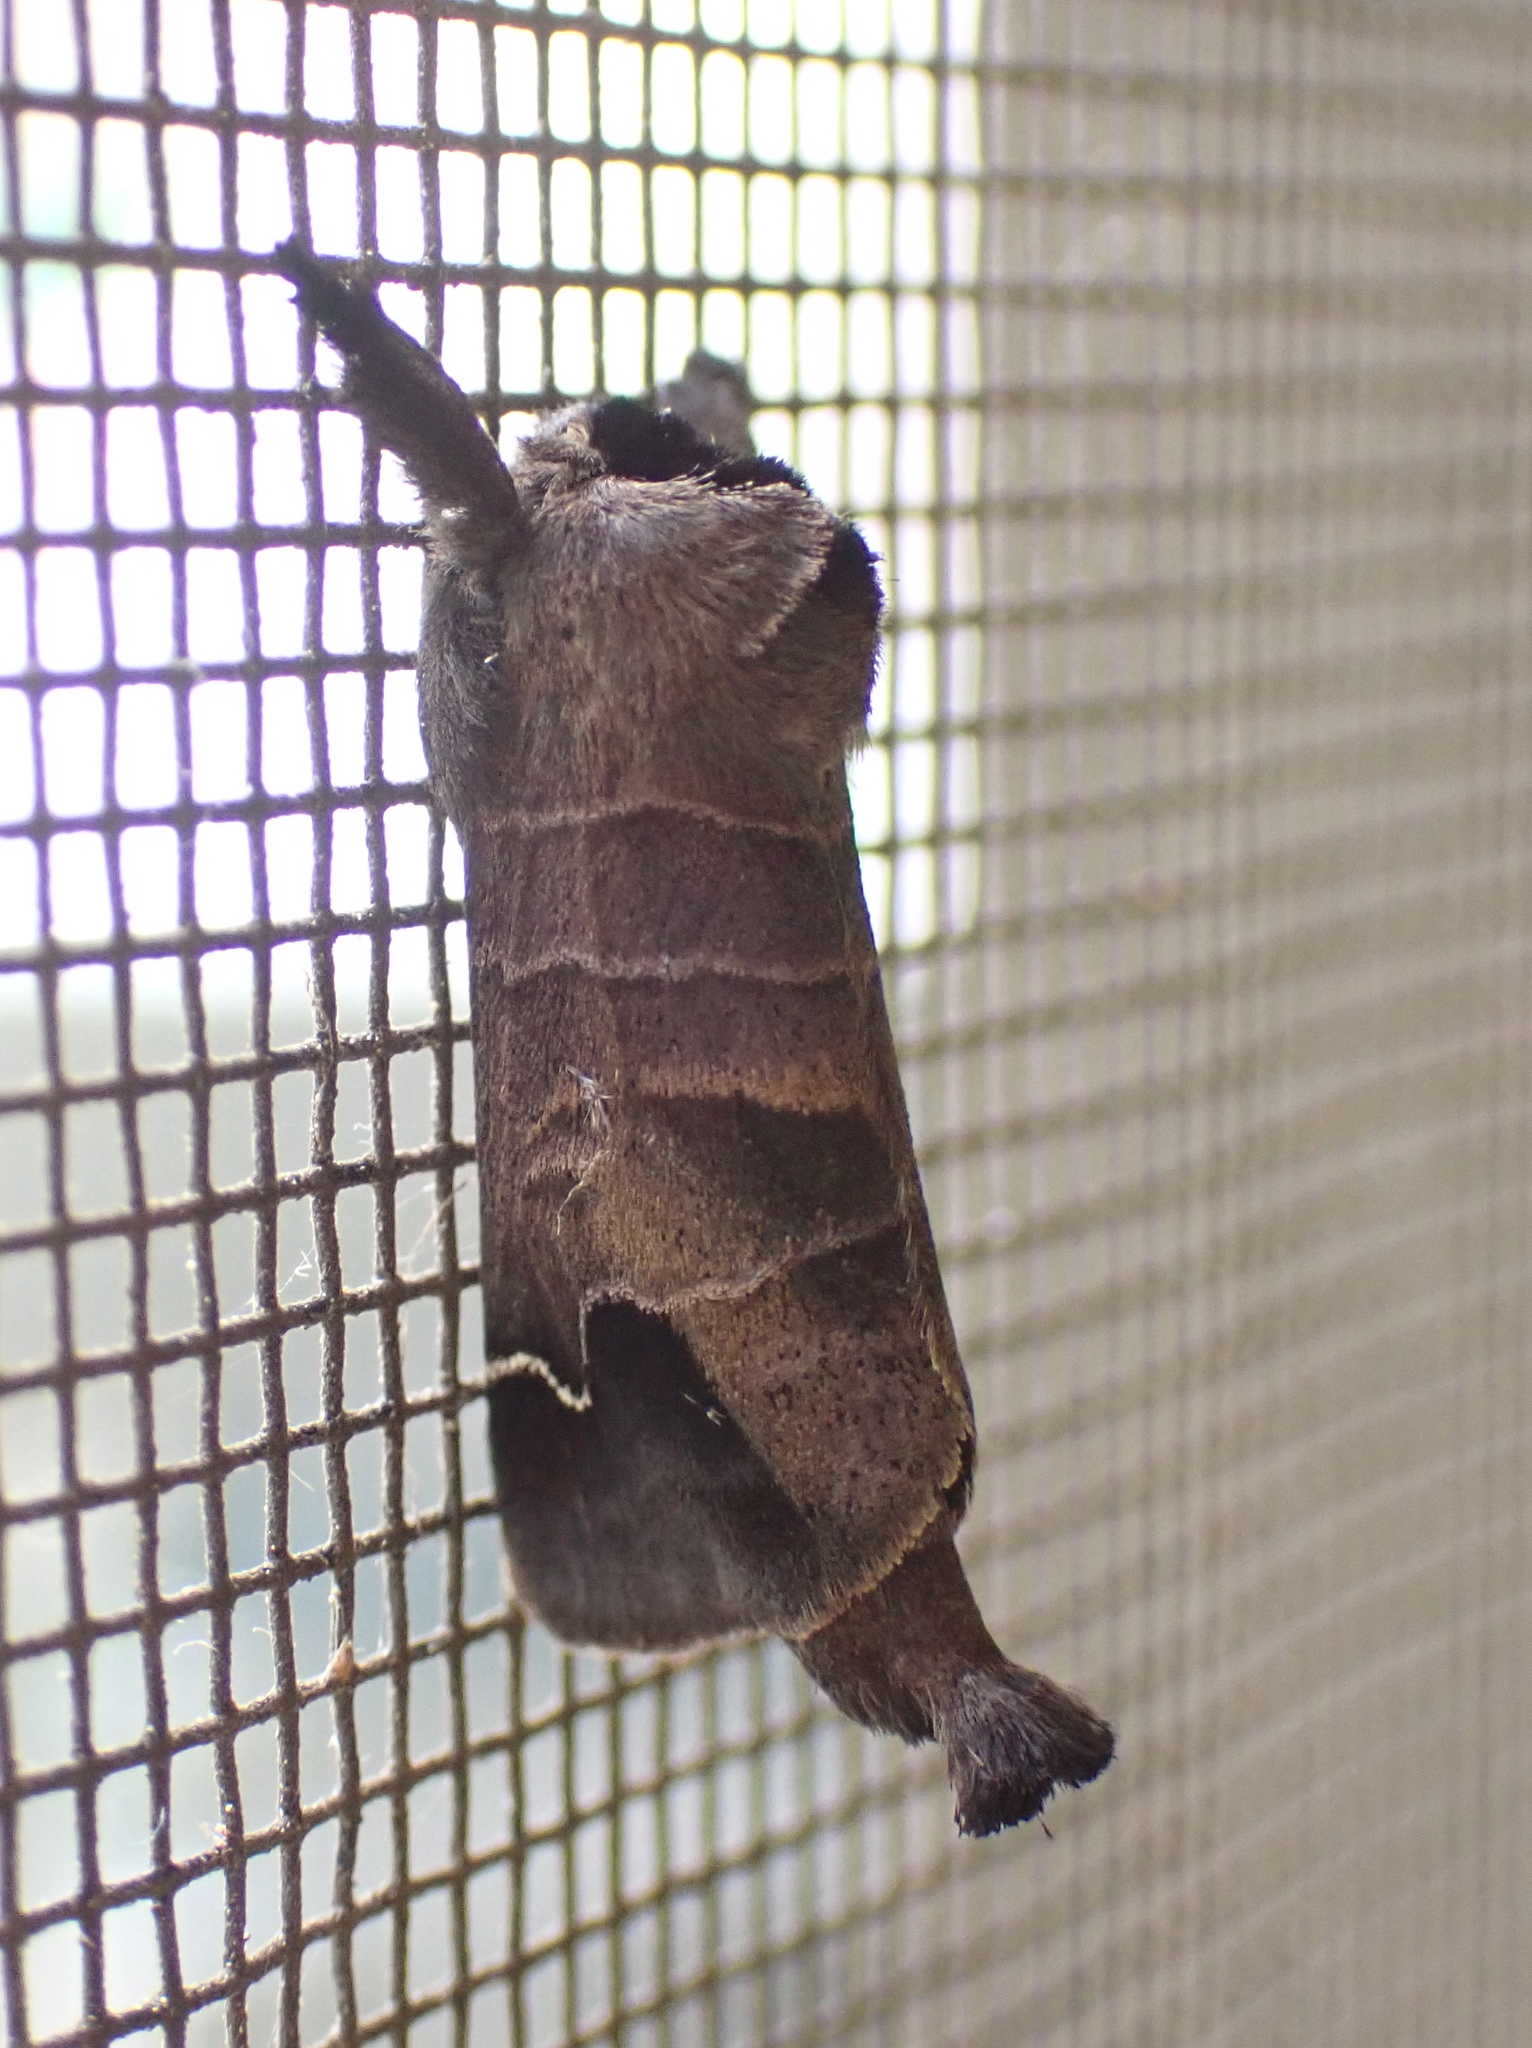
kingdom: Animalia
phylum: Arthropoda
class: Insecta
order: Lepidoptera
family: Notodontidae
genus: Clostera
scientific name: Clostera albosigma
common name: Sigmoid prominent
